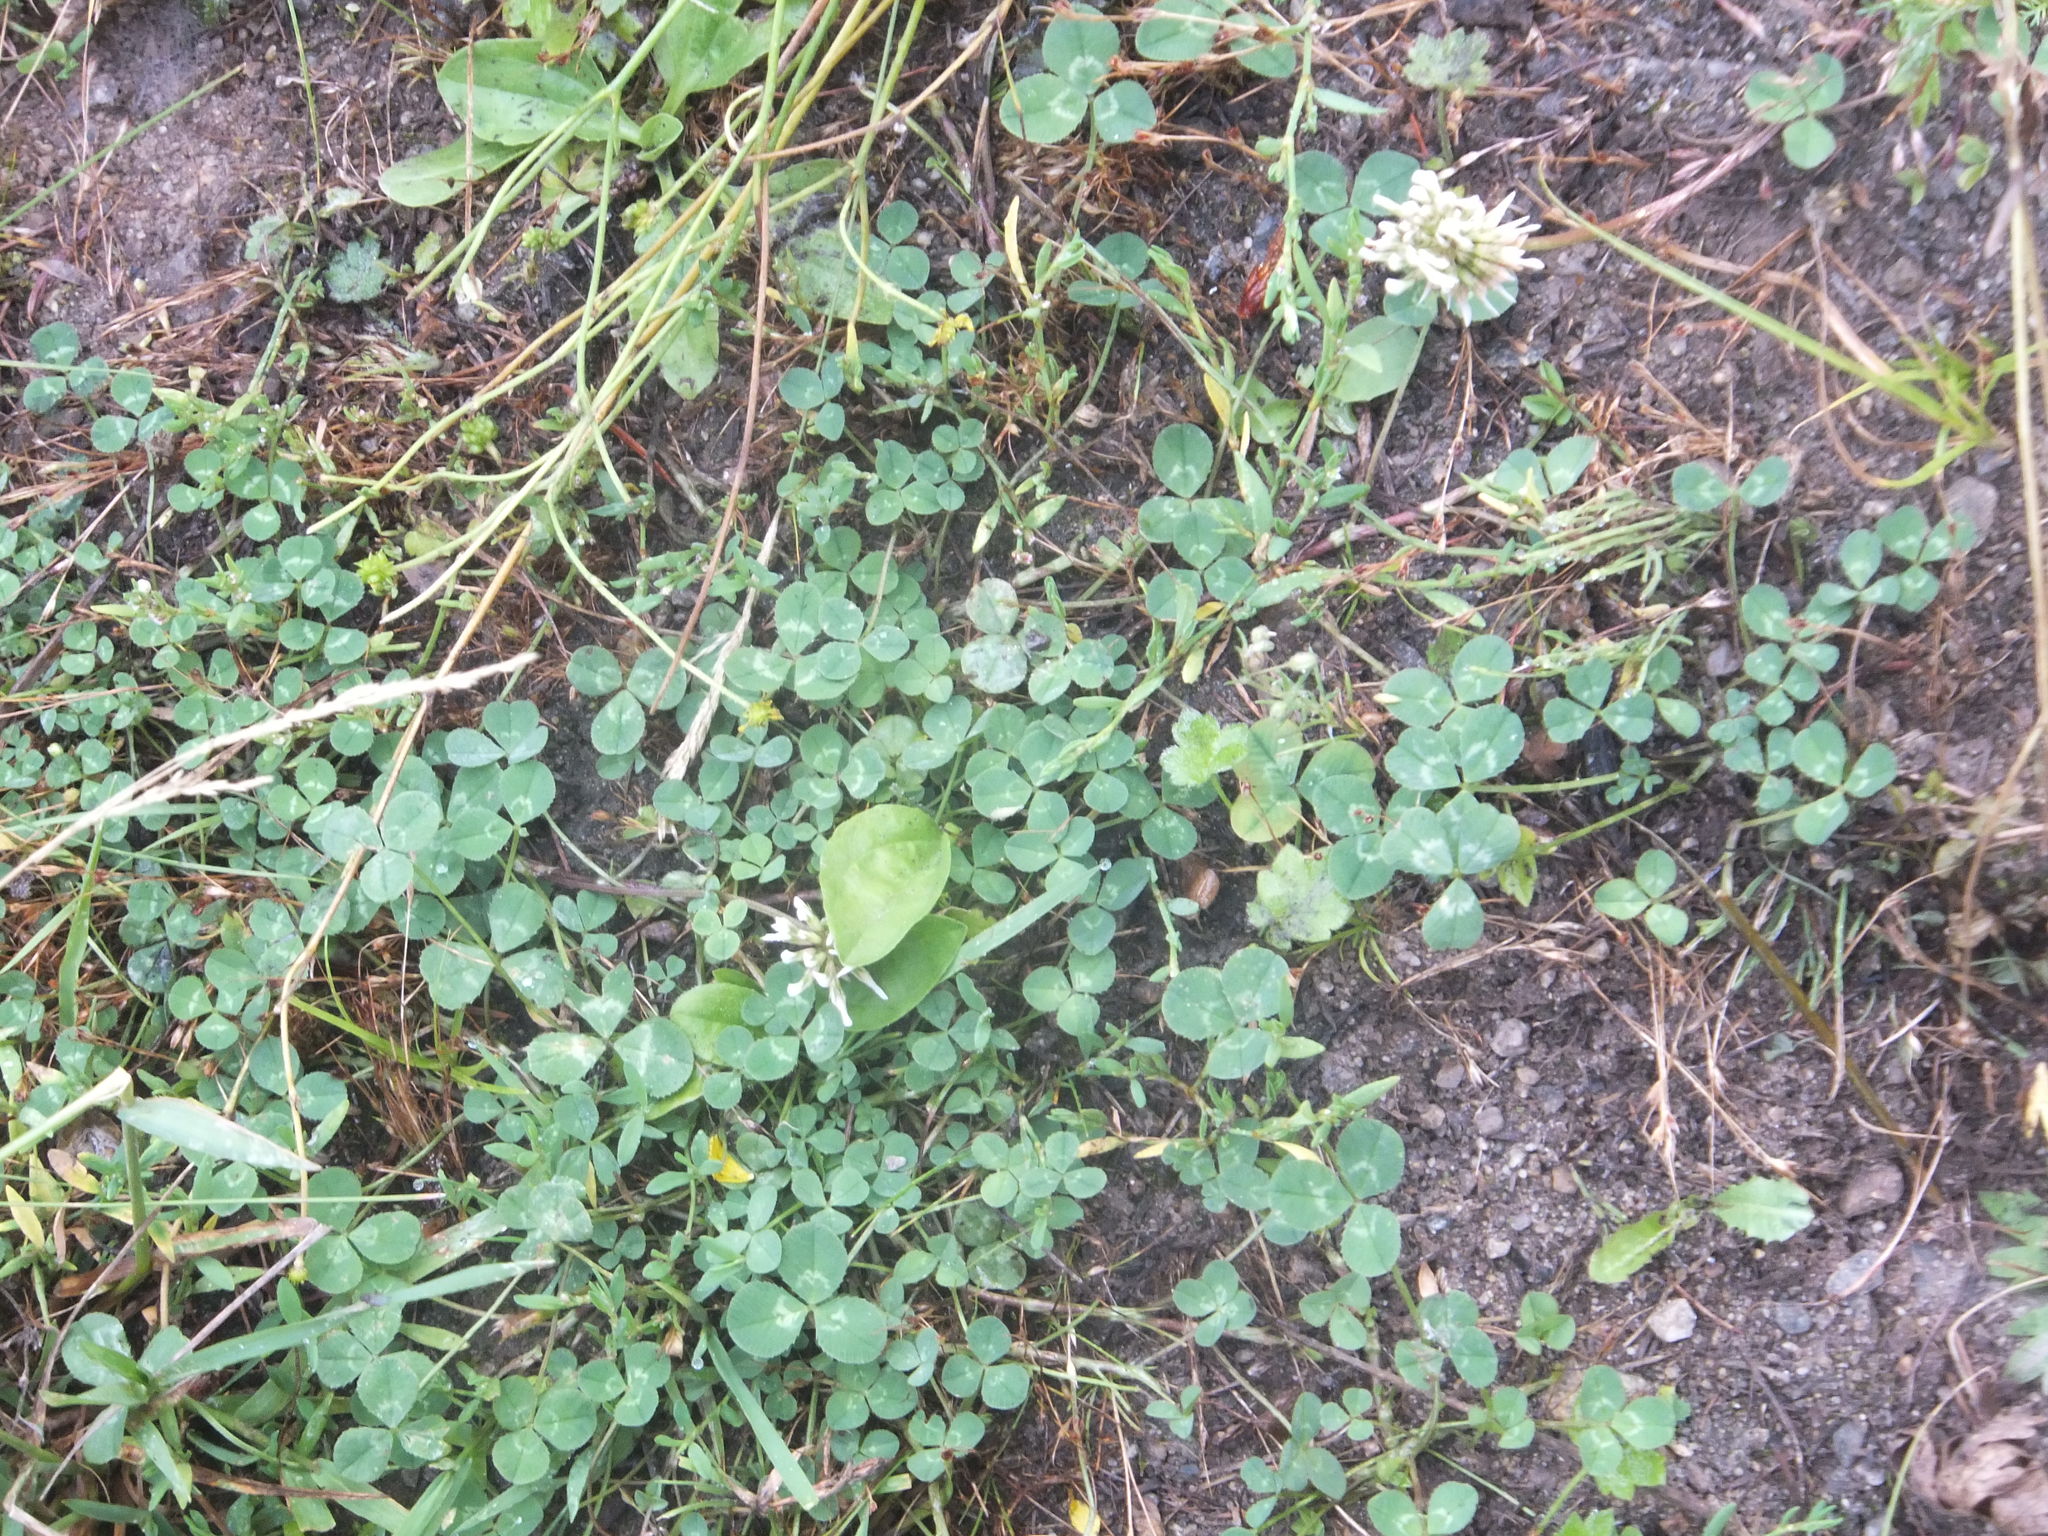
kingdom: Plantae
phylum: Tracheophyta
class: Magnoliopsida
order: Fabales
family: Fabaceae
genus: Trifolium
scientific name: Trifolium repens
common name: White clover
